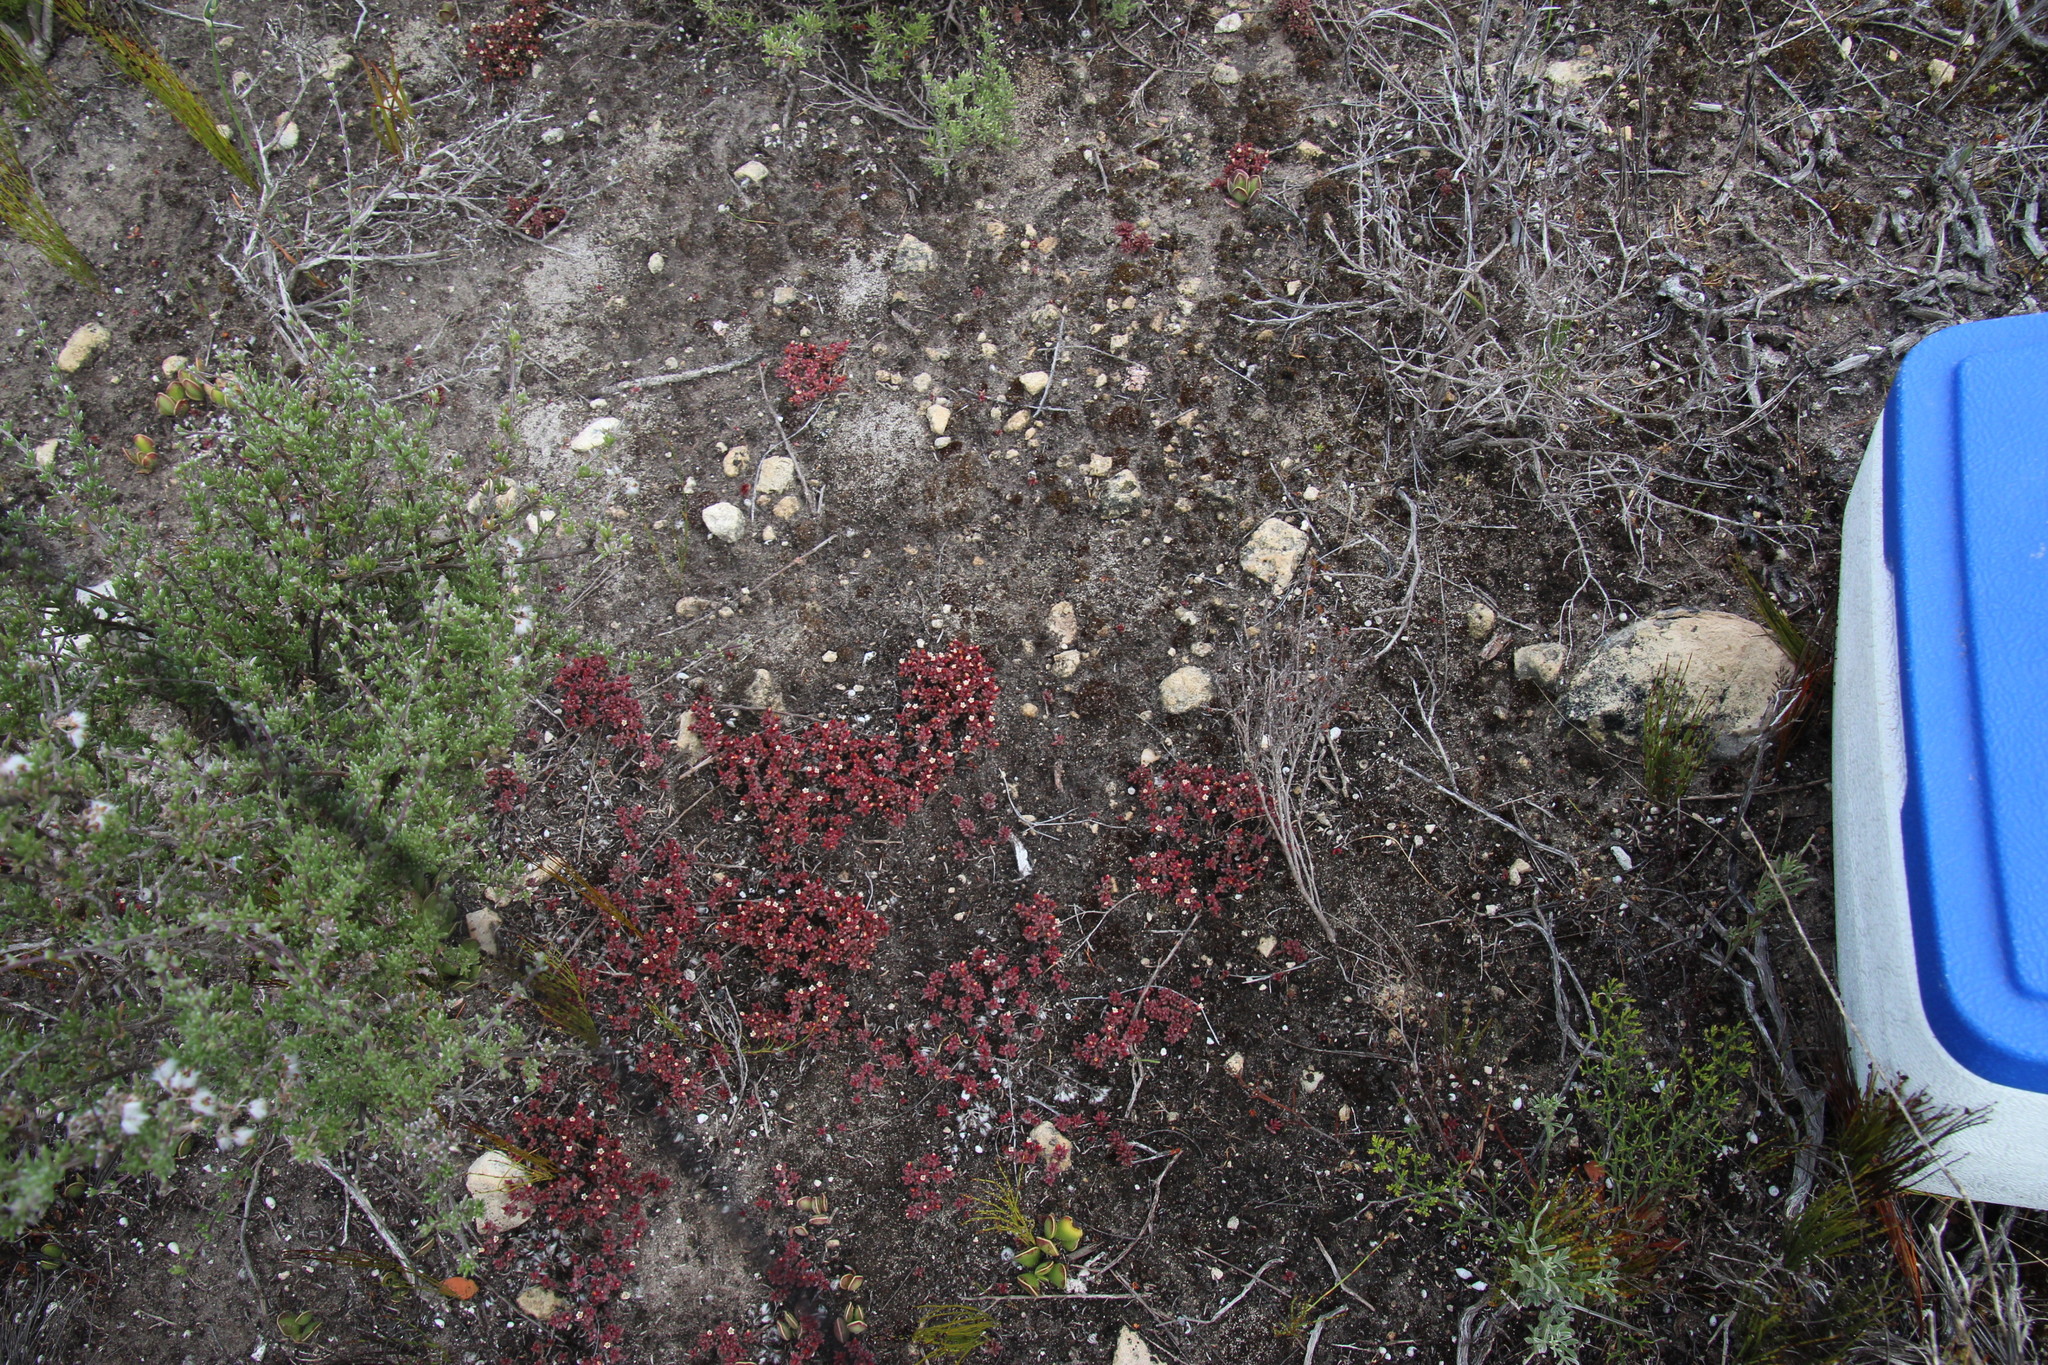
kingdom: Plantae
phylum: Tracheophyta
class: Magnoliopsida
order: Saxifragales
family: Crassulaceae
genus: Crassula
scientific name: Crassula expansa
